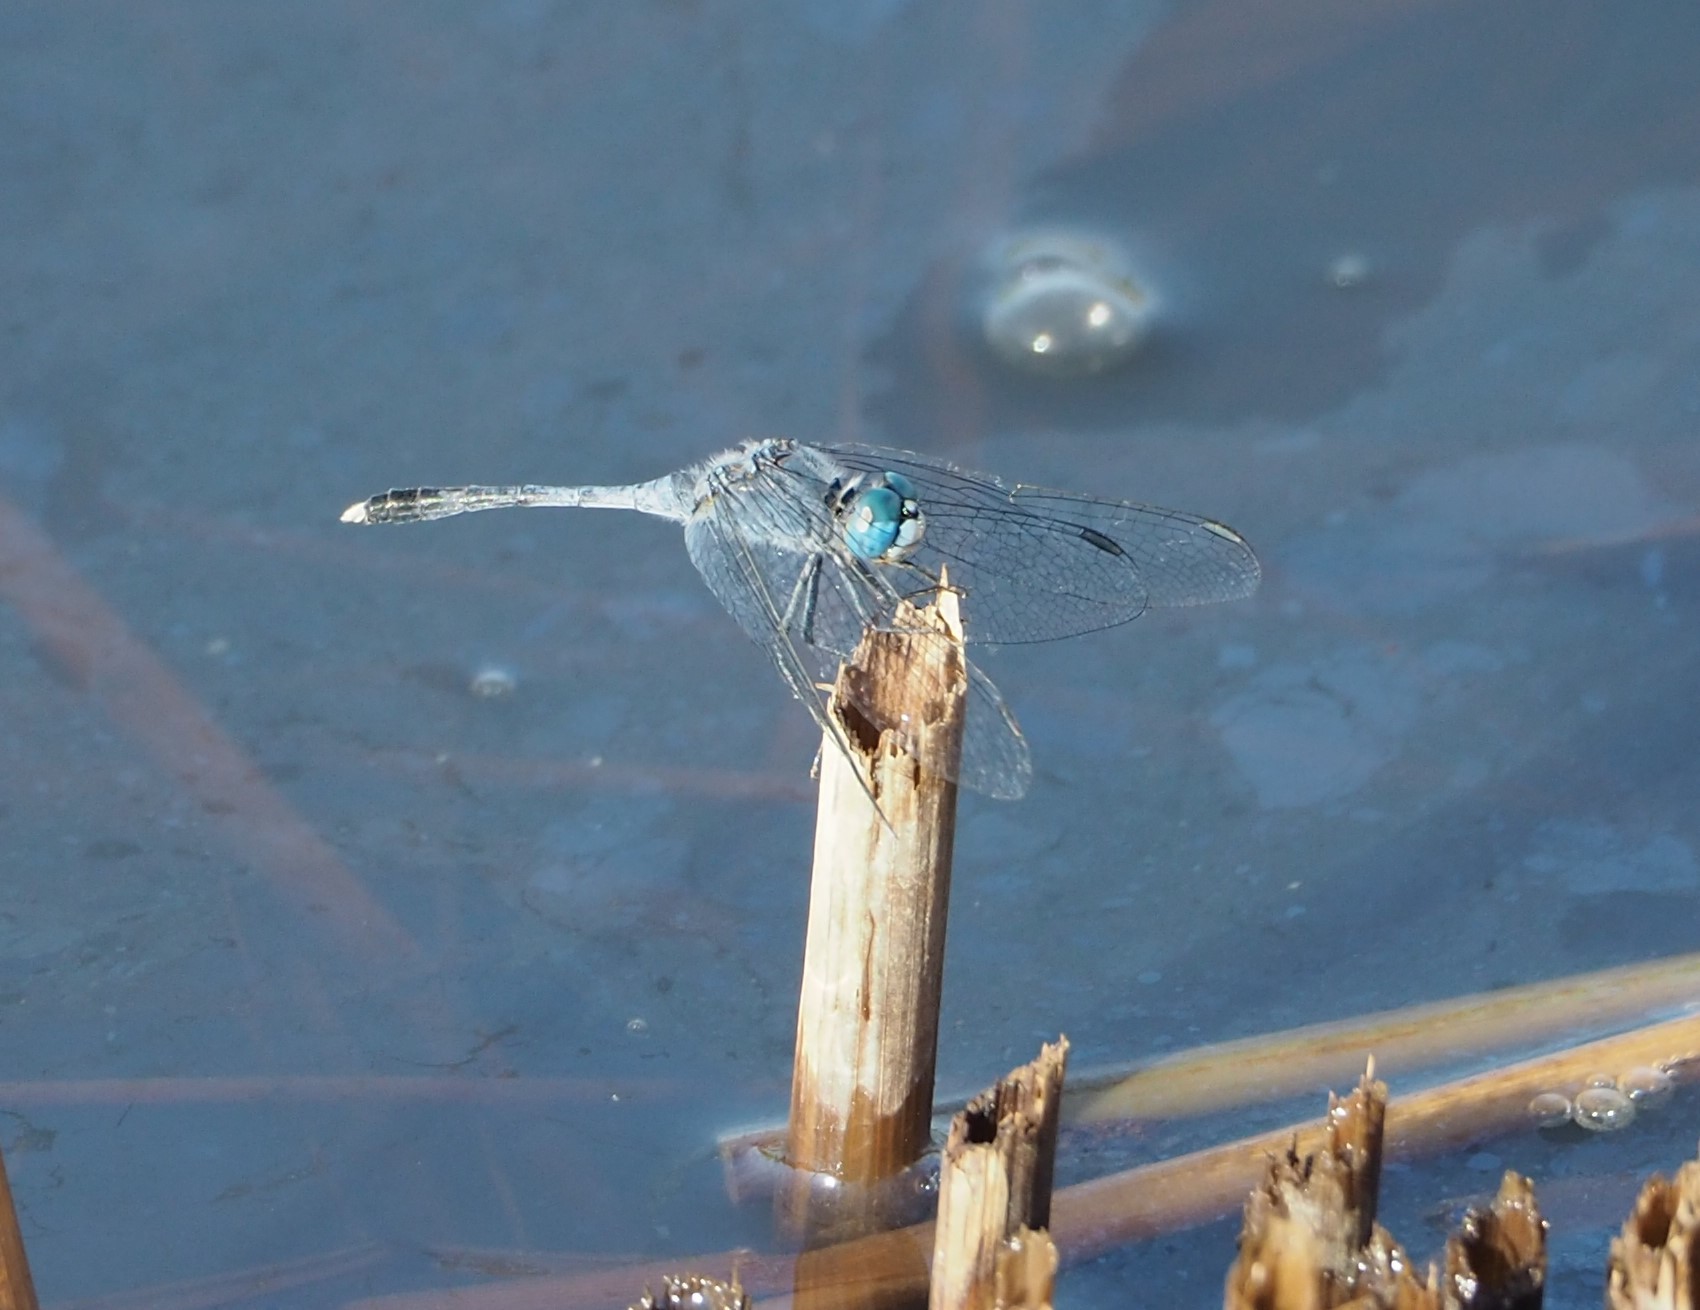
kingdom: Animalia
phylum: Arthropoda
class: Insecta
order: Odonata
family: Libellulidae
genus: Diplacodes
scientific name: Diplacodes trivialis
